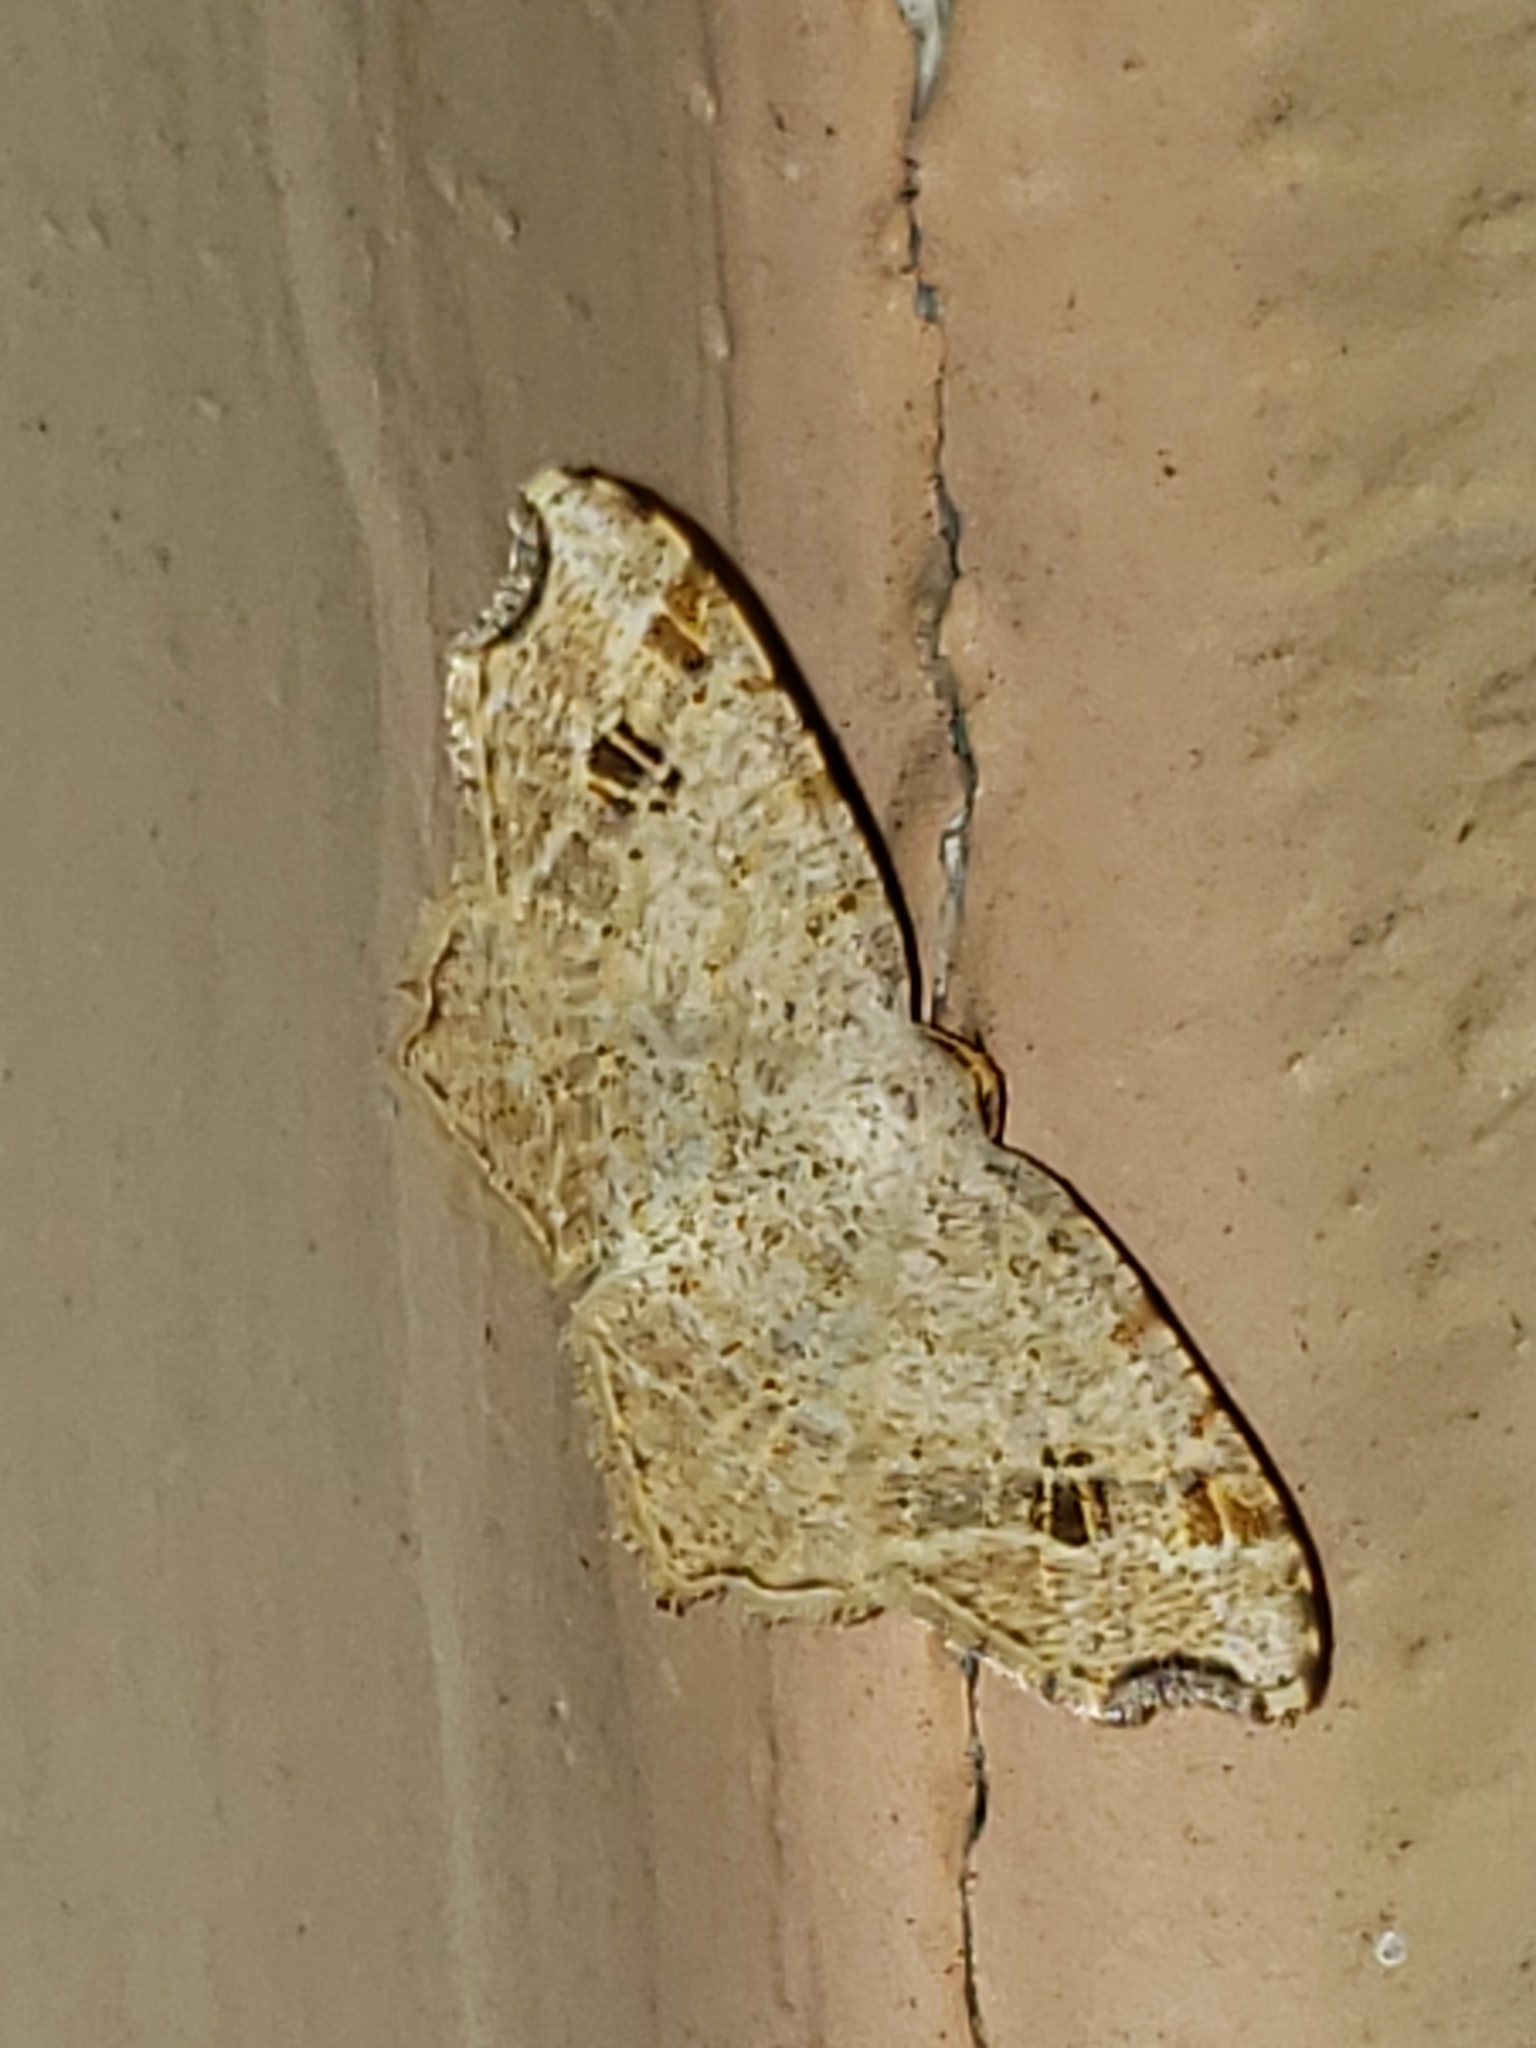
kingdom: Animalia
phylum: Arthropoda
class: Insecta
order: Lepidoptera
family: Geometridae
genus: Macaria
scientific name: Macaria aemulataria
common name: Common angle
